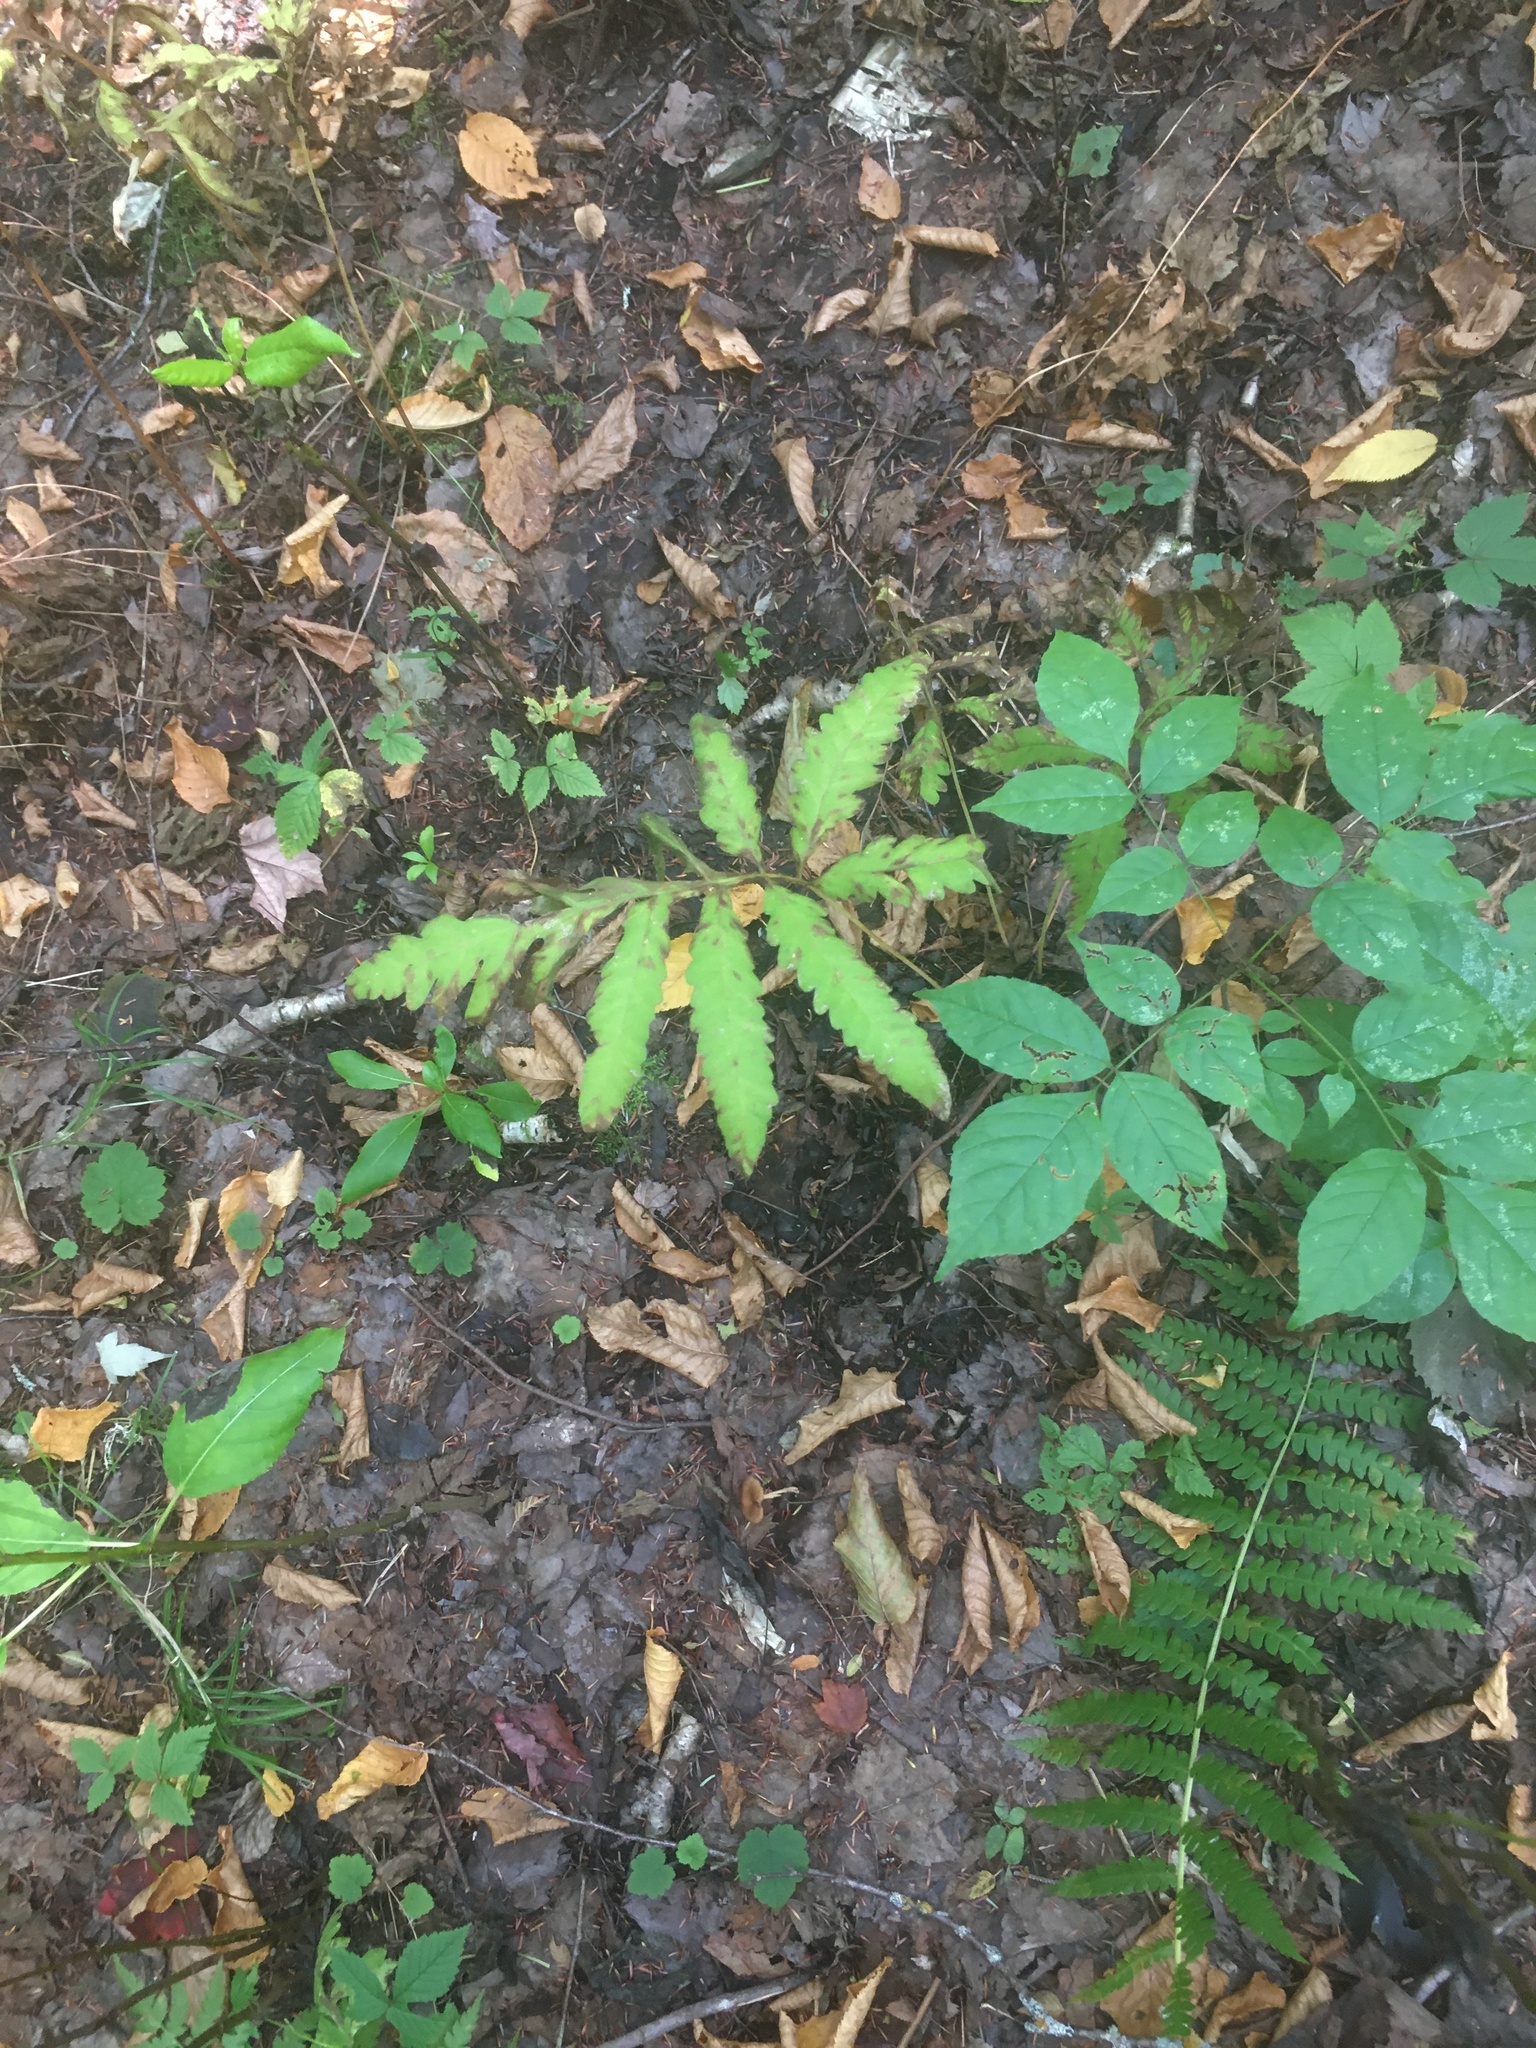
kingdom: Plantae
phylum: Tracheophyta
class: Polypodiopsida
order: Polypodiales
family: Onocleaceae
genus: Onoclea
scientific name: Onoclea sensibilis
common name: Sensitive fern
